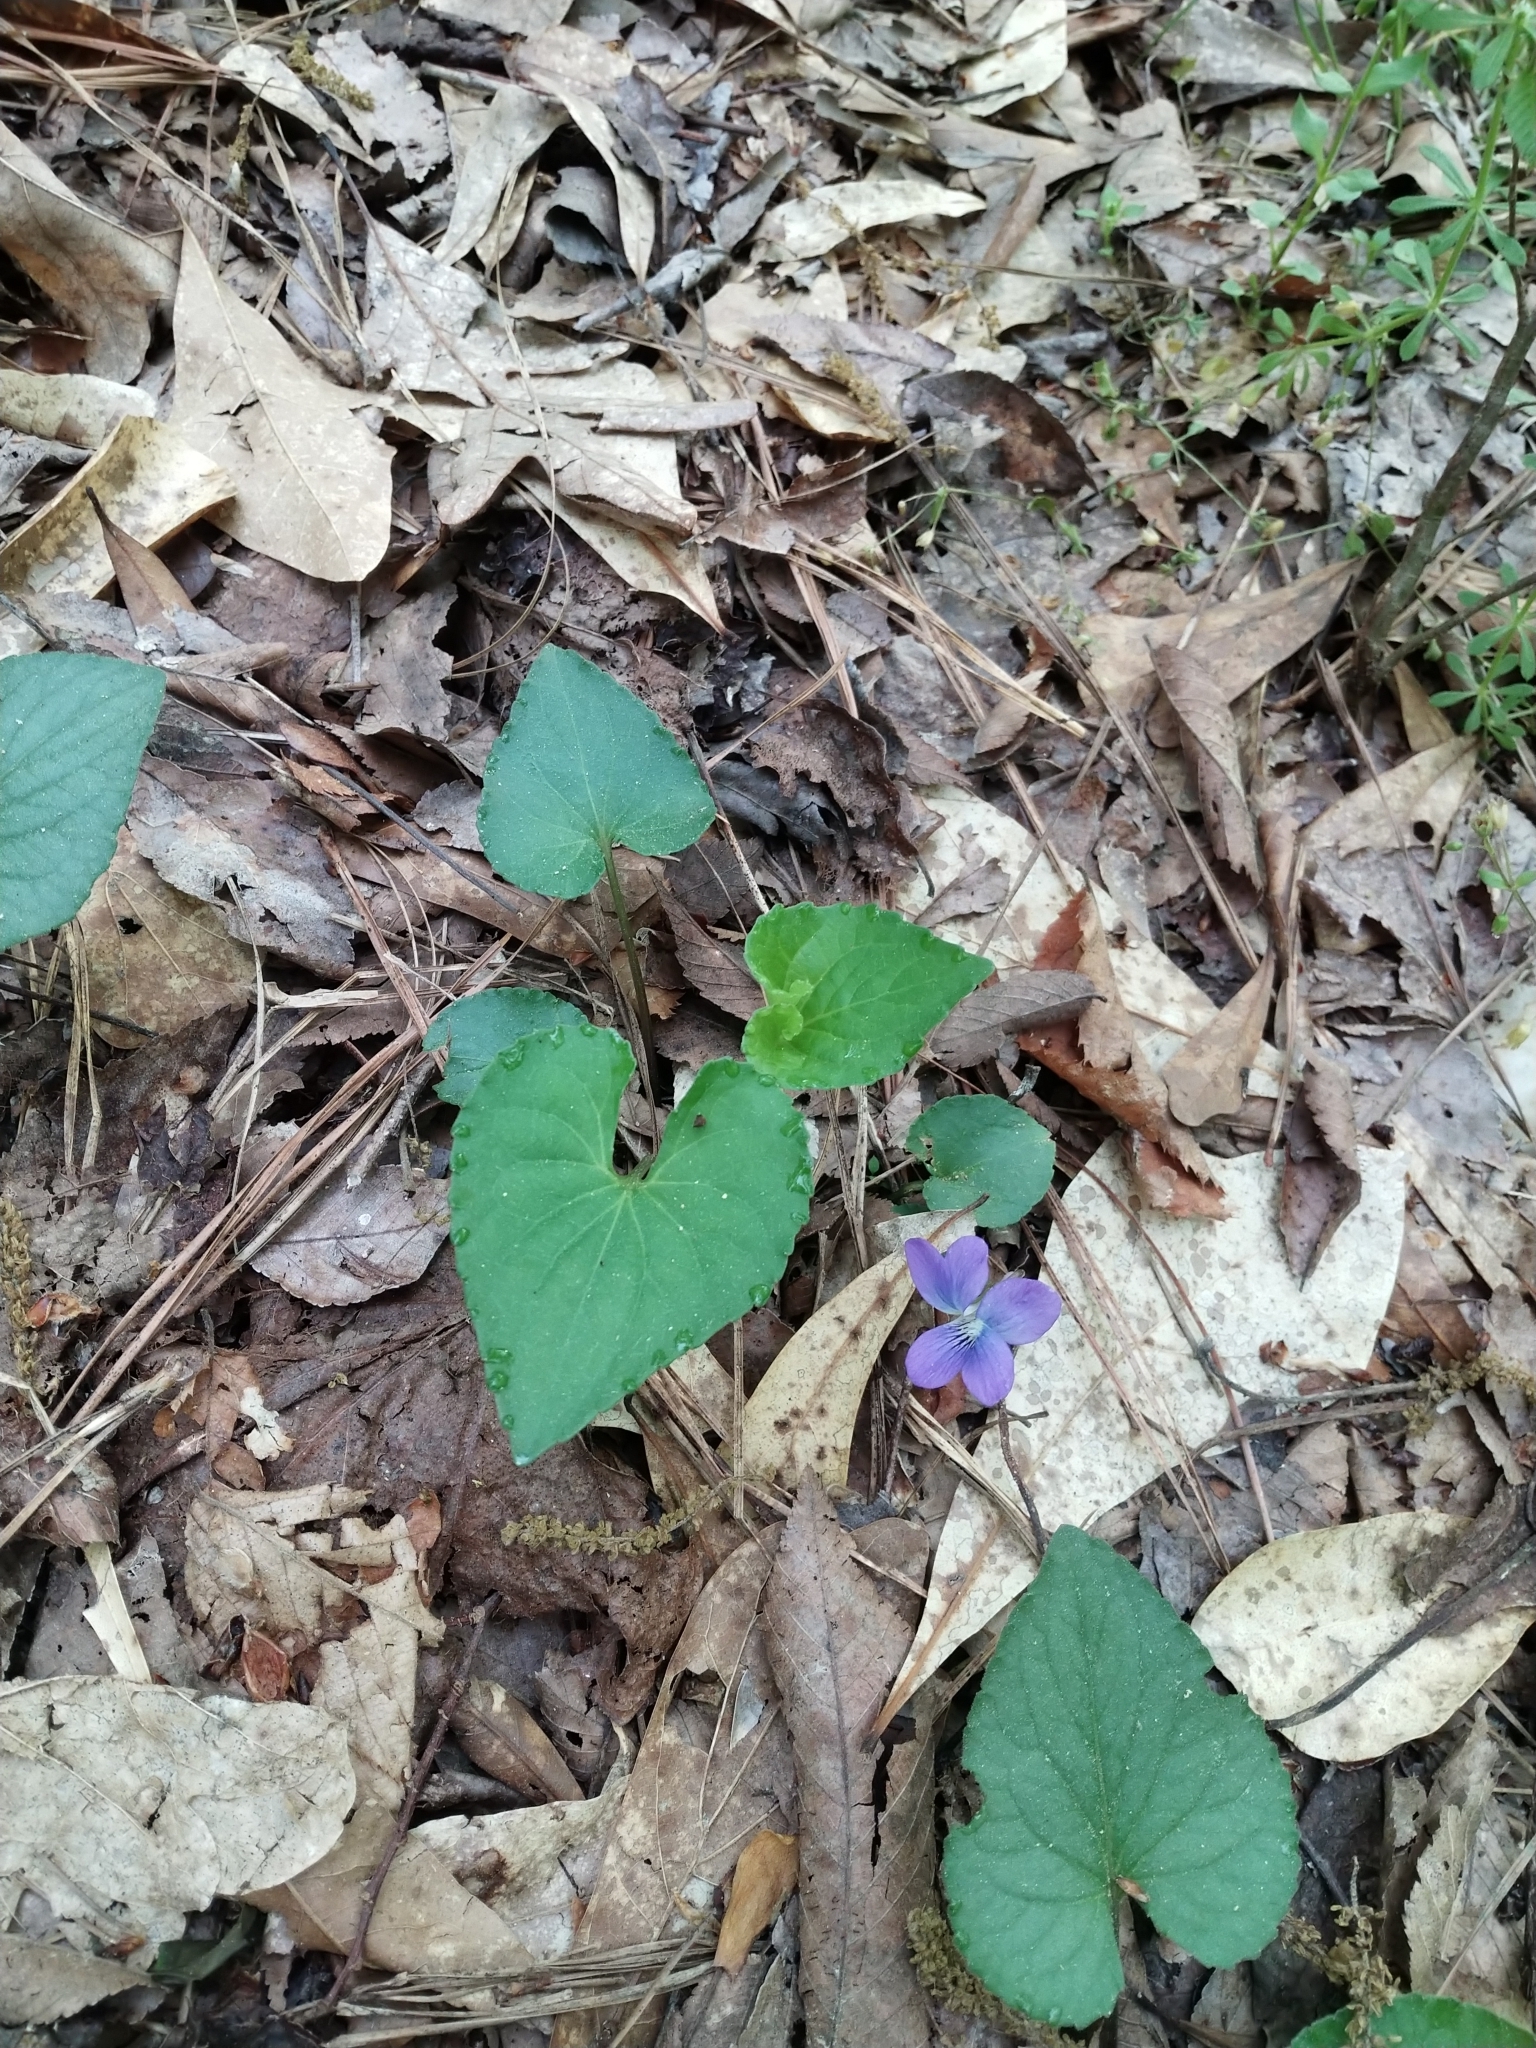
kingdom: Plantae
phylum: Tracheophyta
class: Magnoliopsida
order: Malpighiales
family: Violaceae
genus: Viola
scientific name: Viola sororia
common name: Dooryard violet
